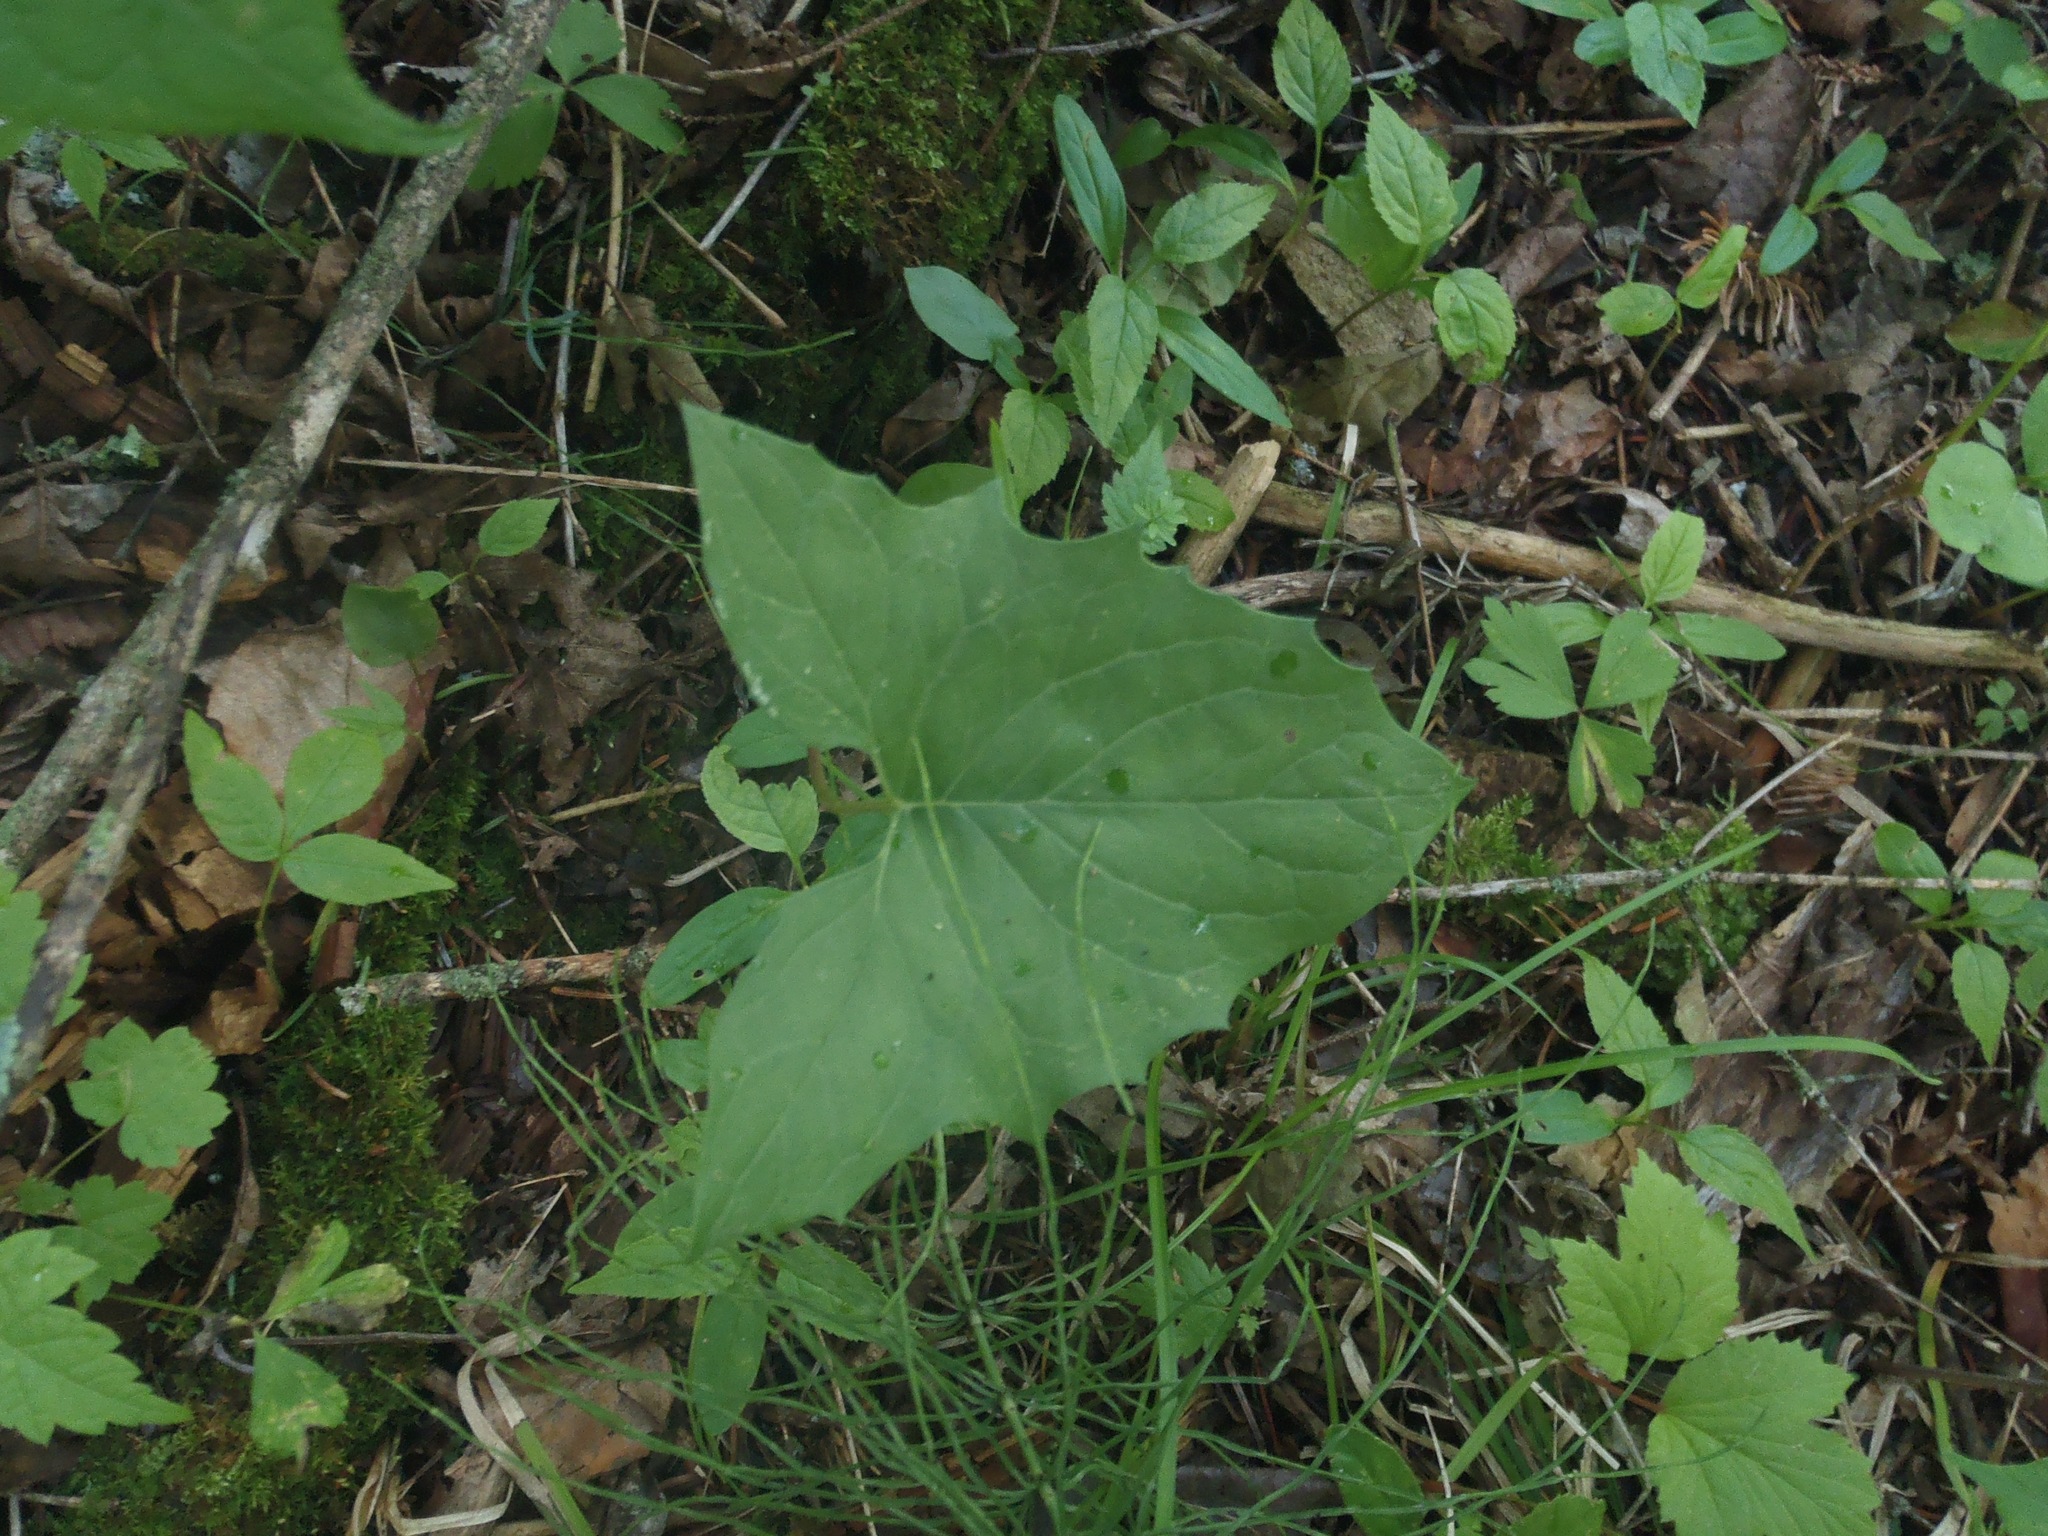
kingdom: Plantae
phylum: Tracheophyta
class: Magnoliopsida
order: Asterales
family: Asteraceae
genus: Nabalus
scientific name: Nabalus albus
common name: White rattlesnakeroot
